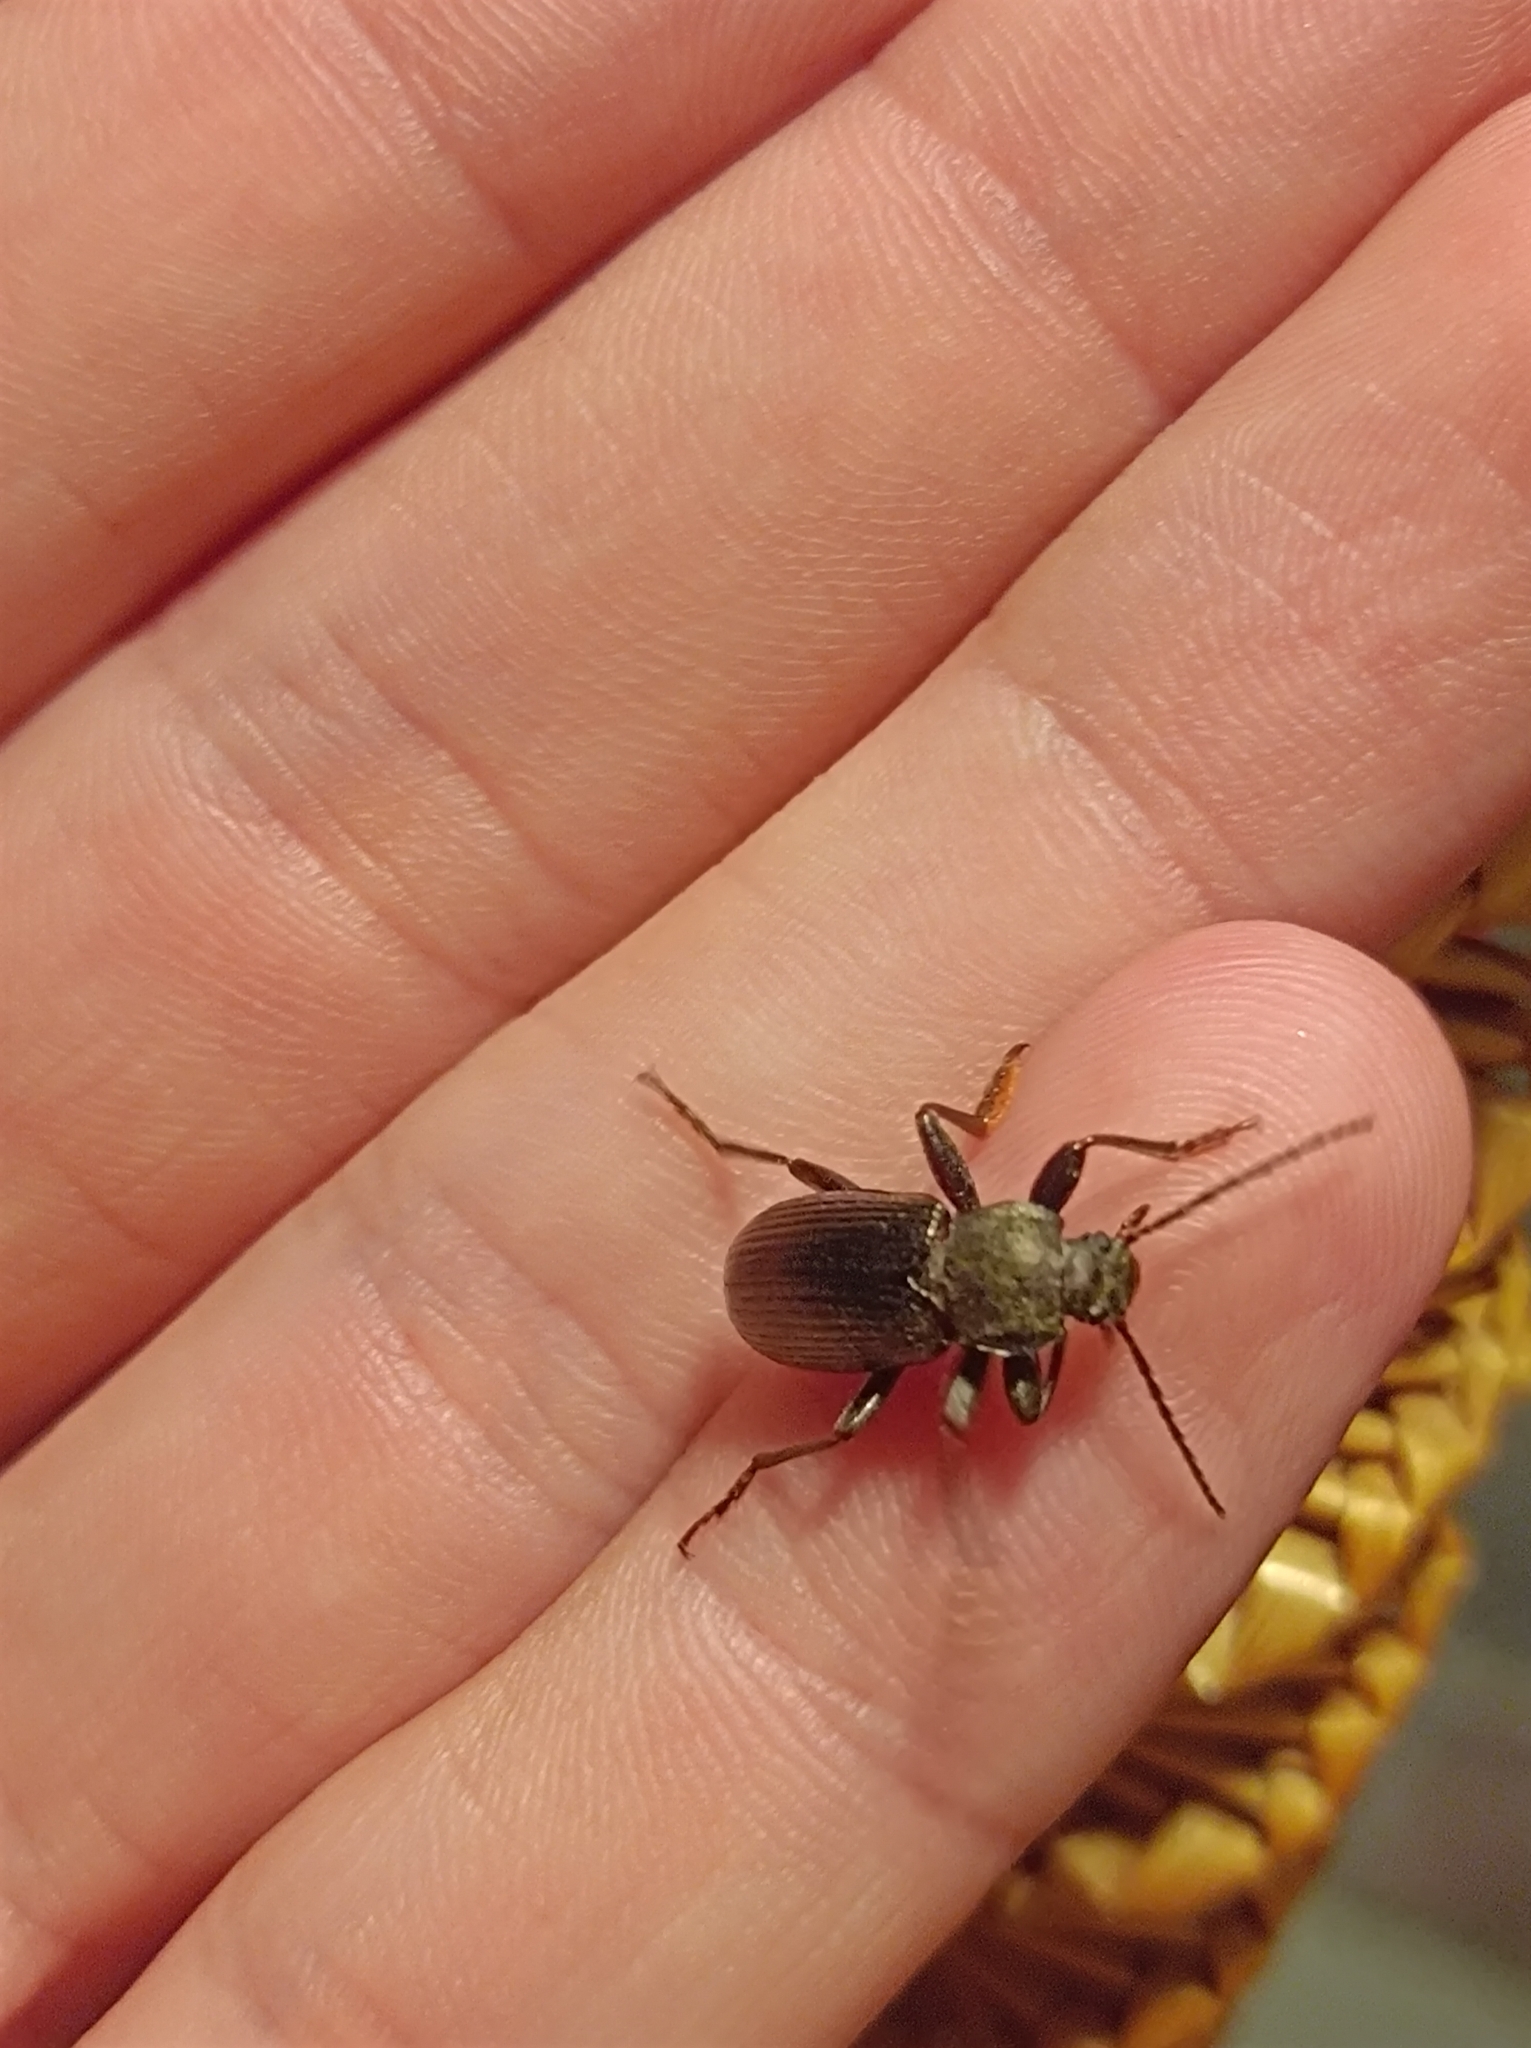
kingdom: Animalia
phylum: Arthropoda
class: Insecta
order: Coleoptera
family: Tenebrionidae
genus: Stenomax
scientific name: Stenomax aeneus
